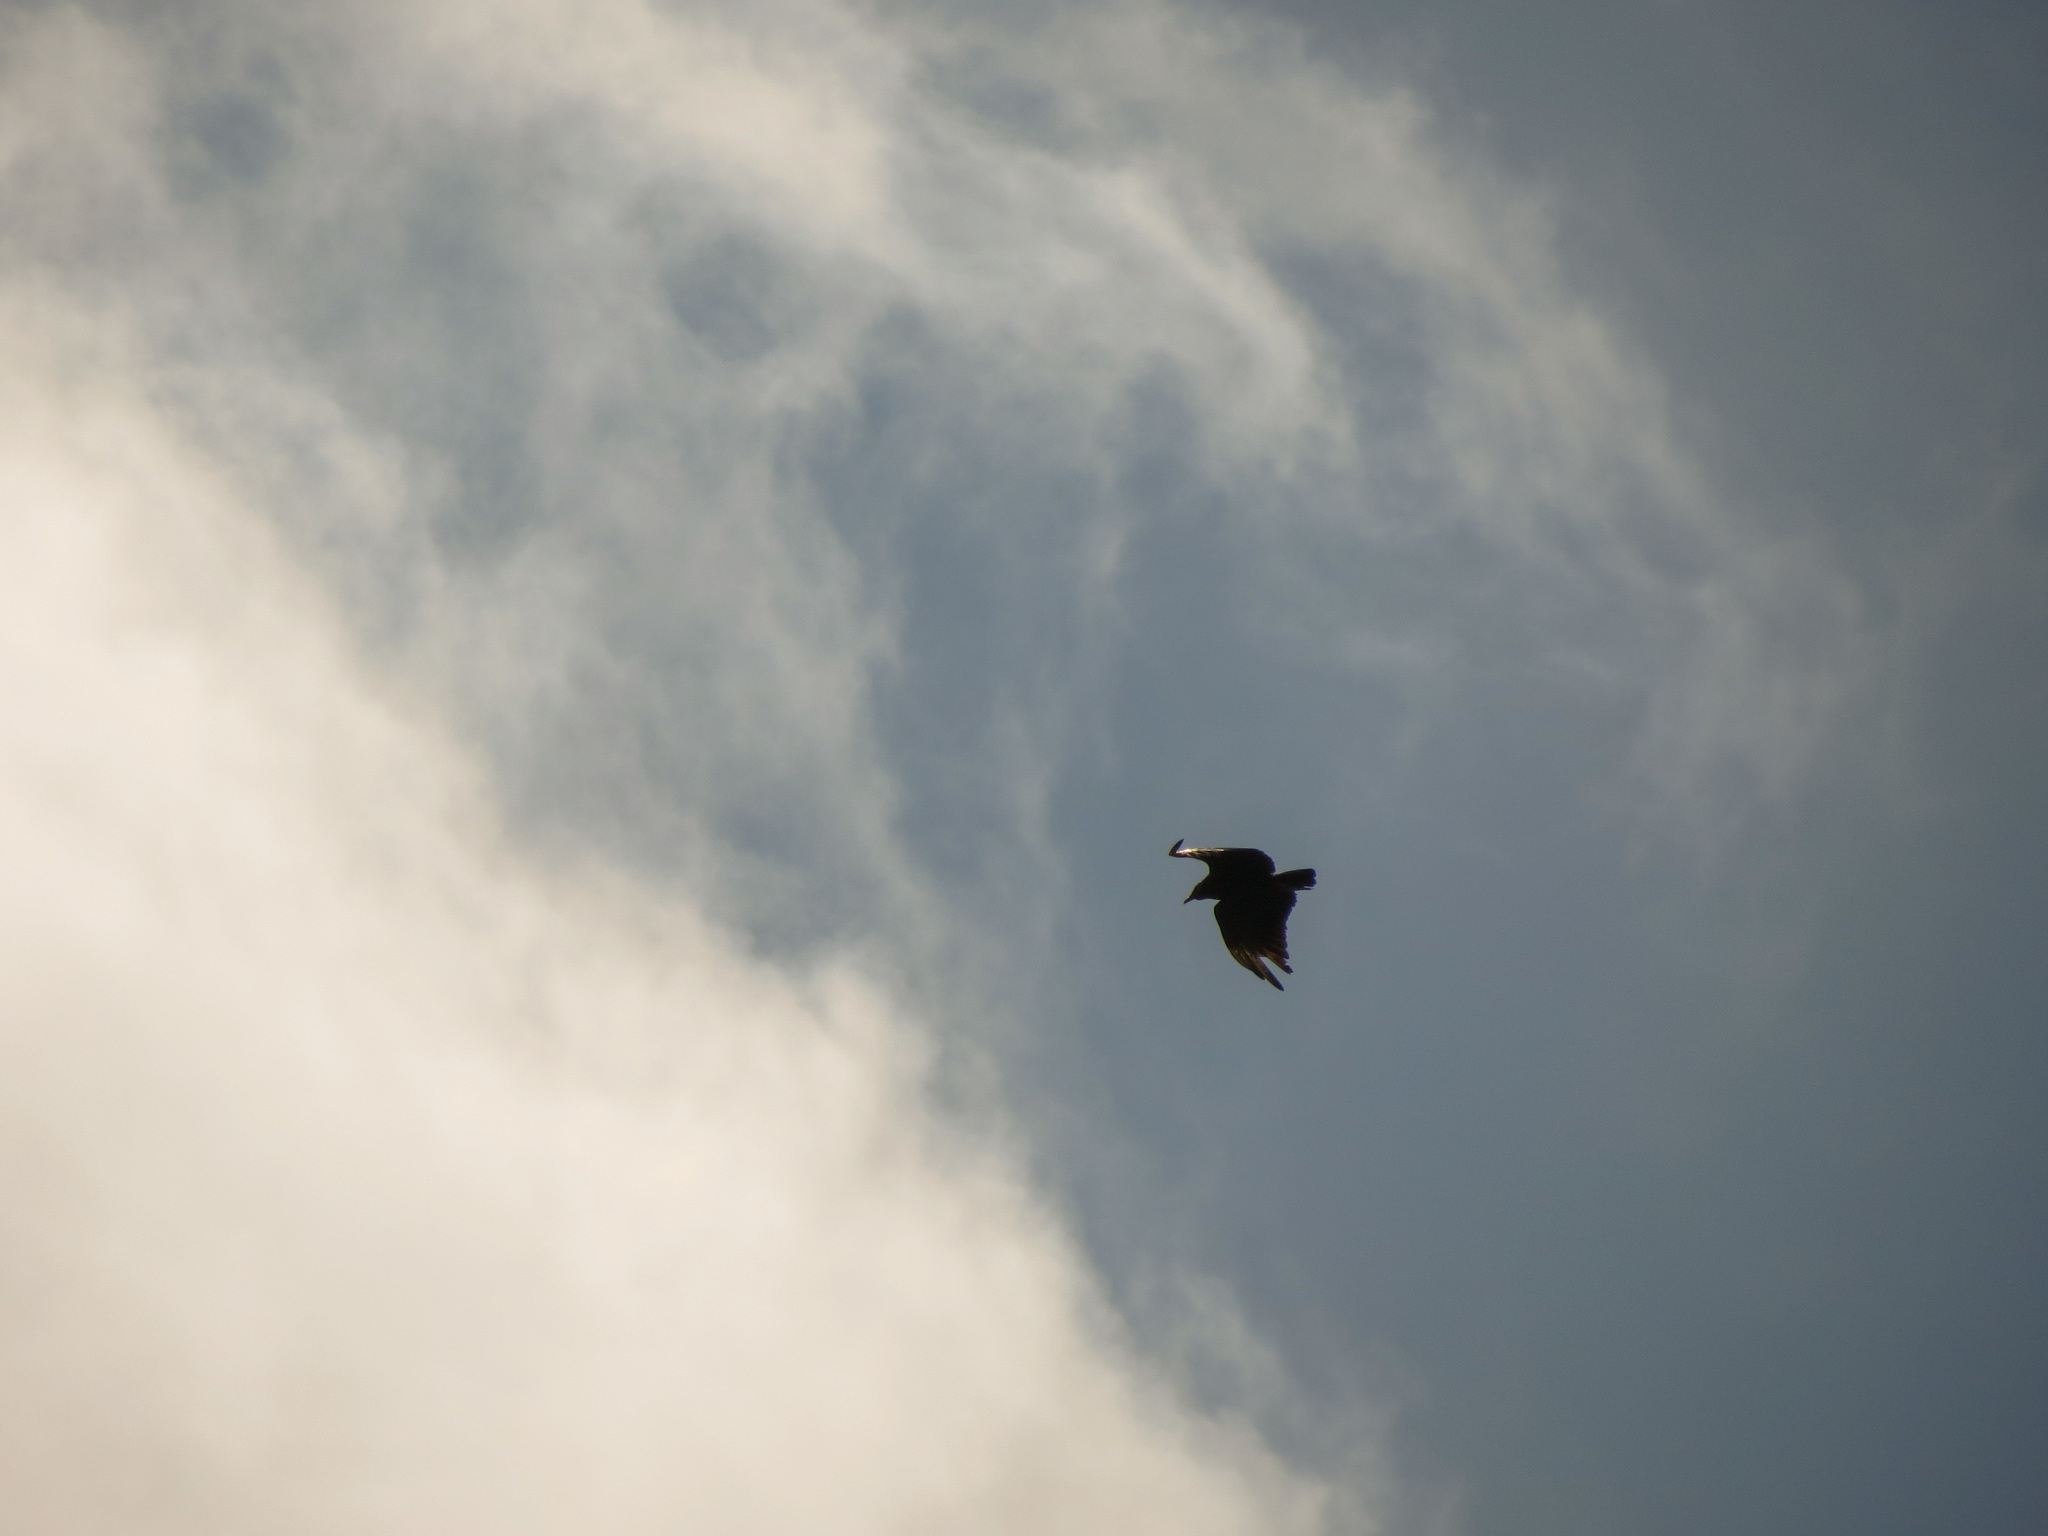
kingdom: Animalia
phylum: Chordata
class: Aves
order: Accipitriformes
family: Cathartidae
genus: Coragyps
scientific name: Coragyps atratus
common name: Black vulture
